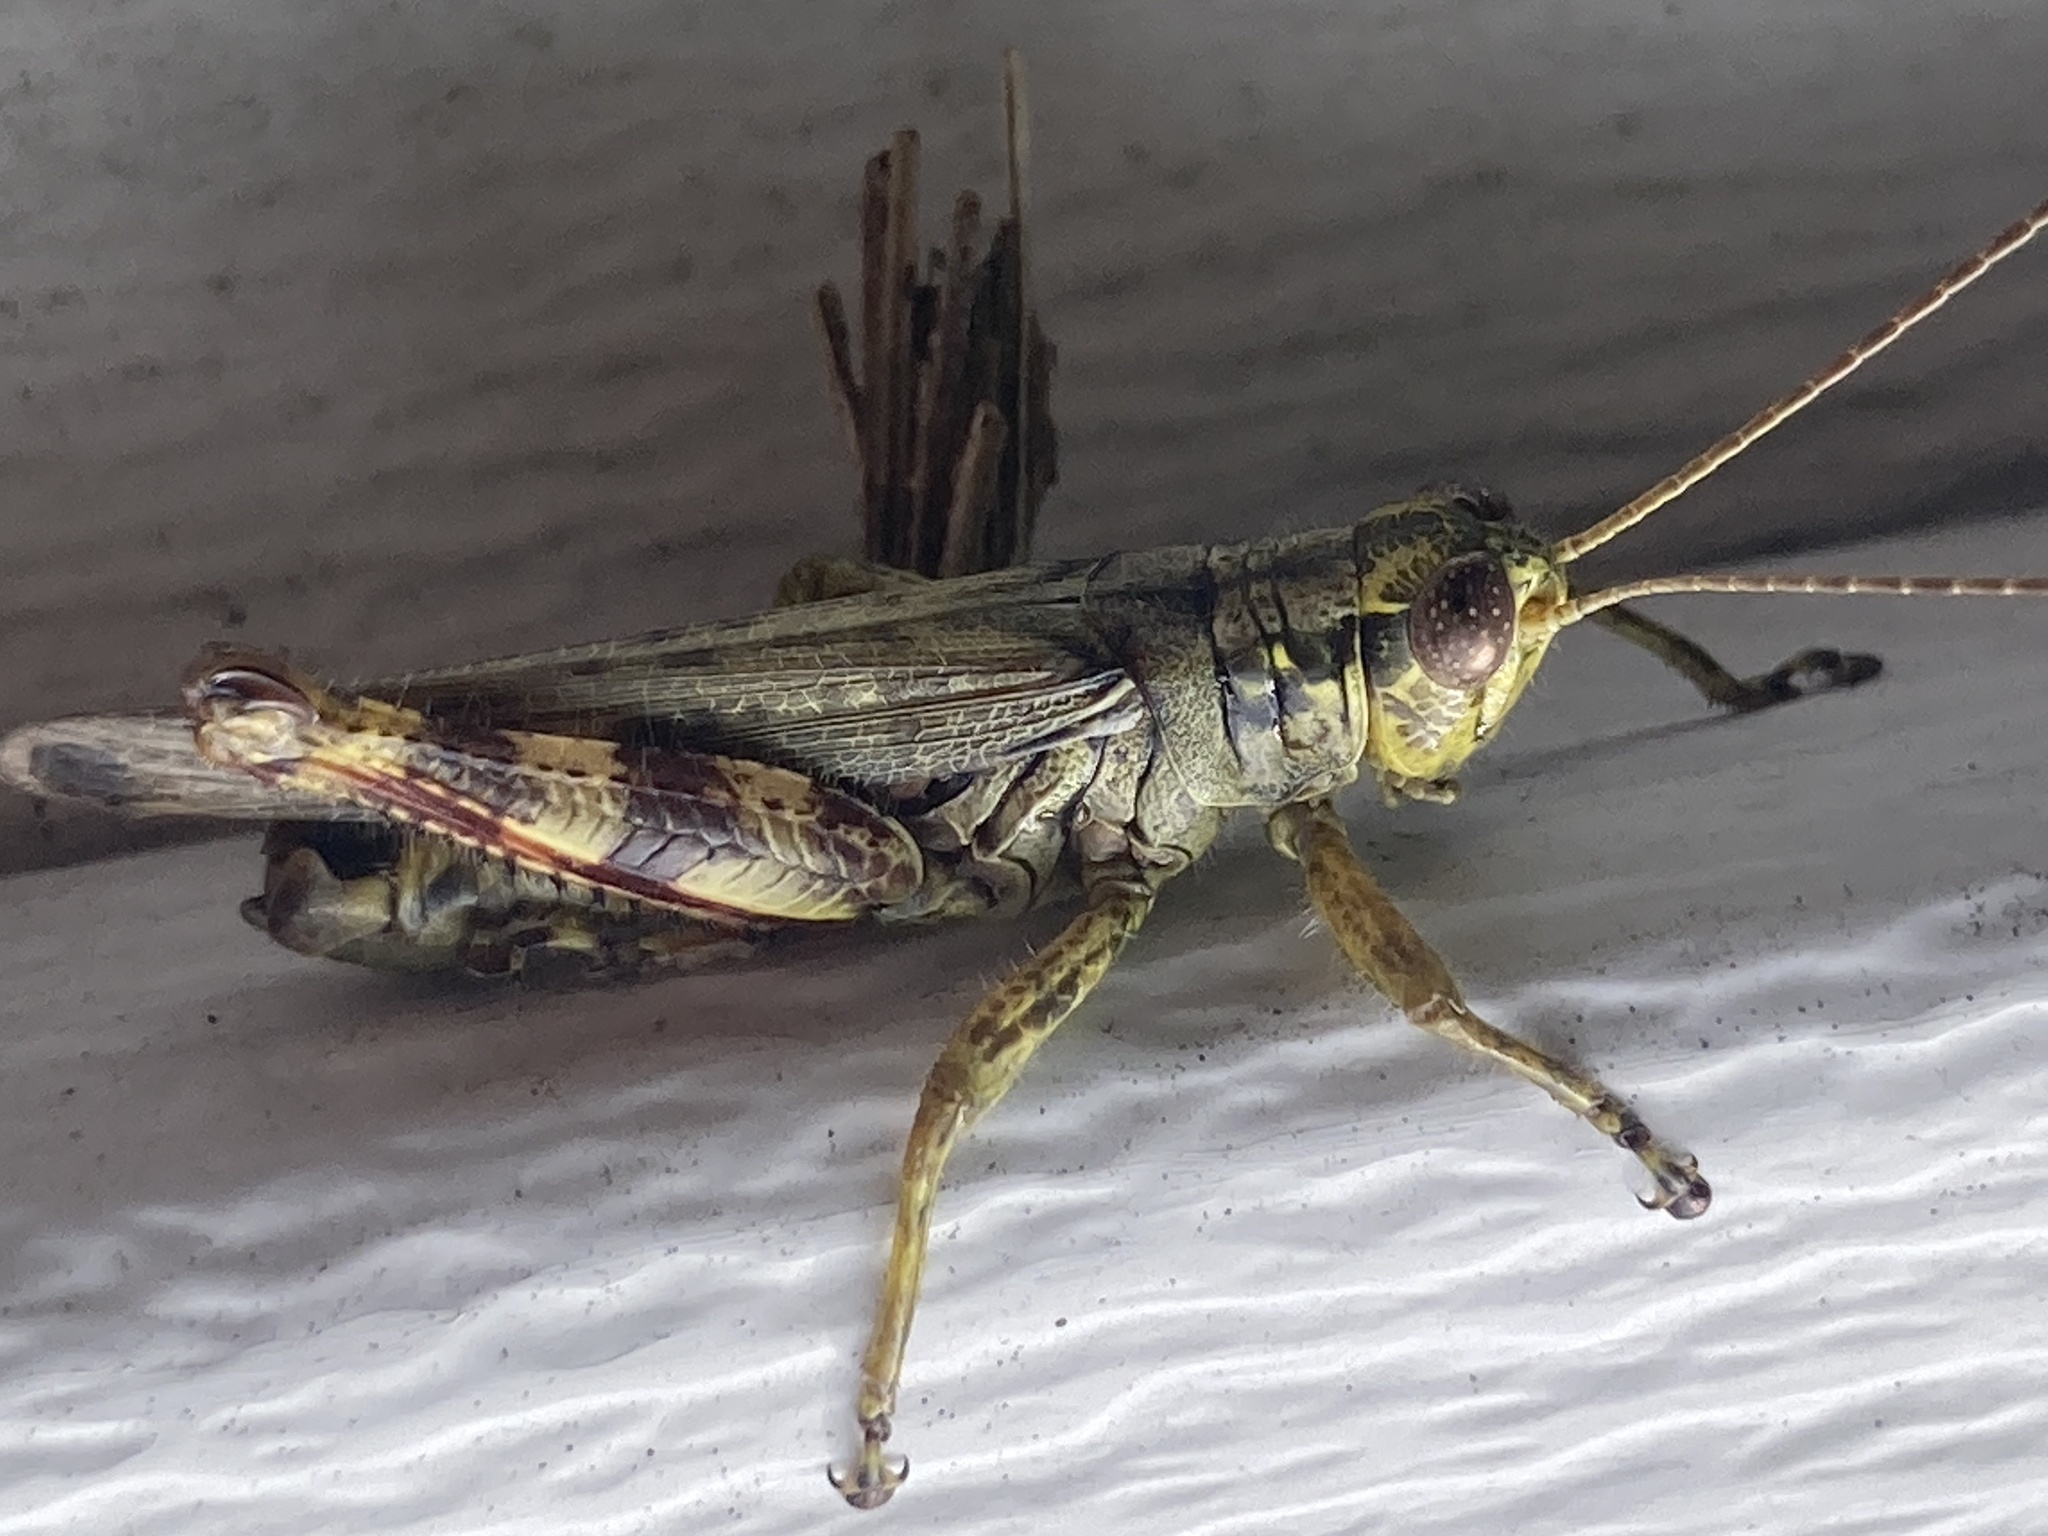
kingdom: Animalia
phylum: Arthropoda
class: Insecta
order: Orthoptera
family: Acrididae
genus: Melanoplus
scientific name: Melanoplus punctulatus
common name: Pine-tree spur-throat grasshopper
